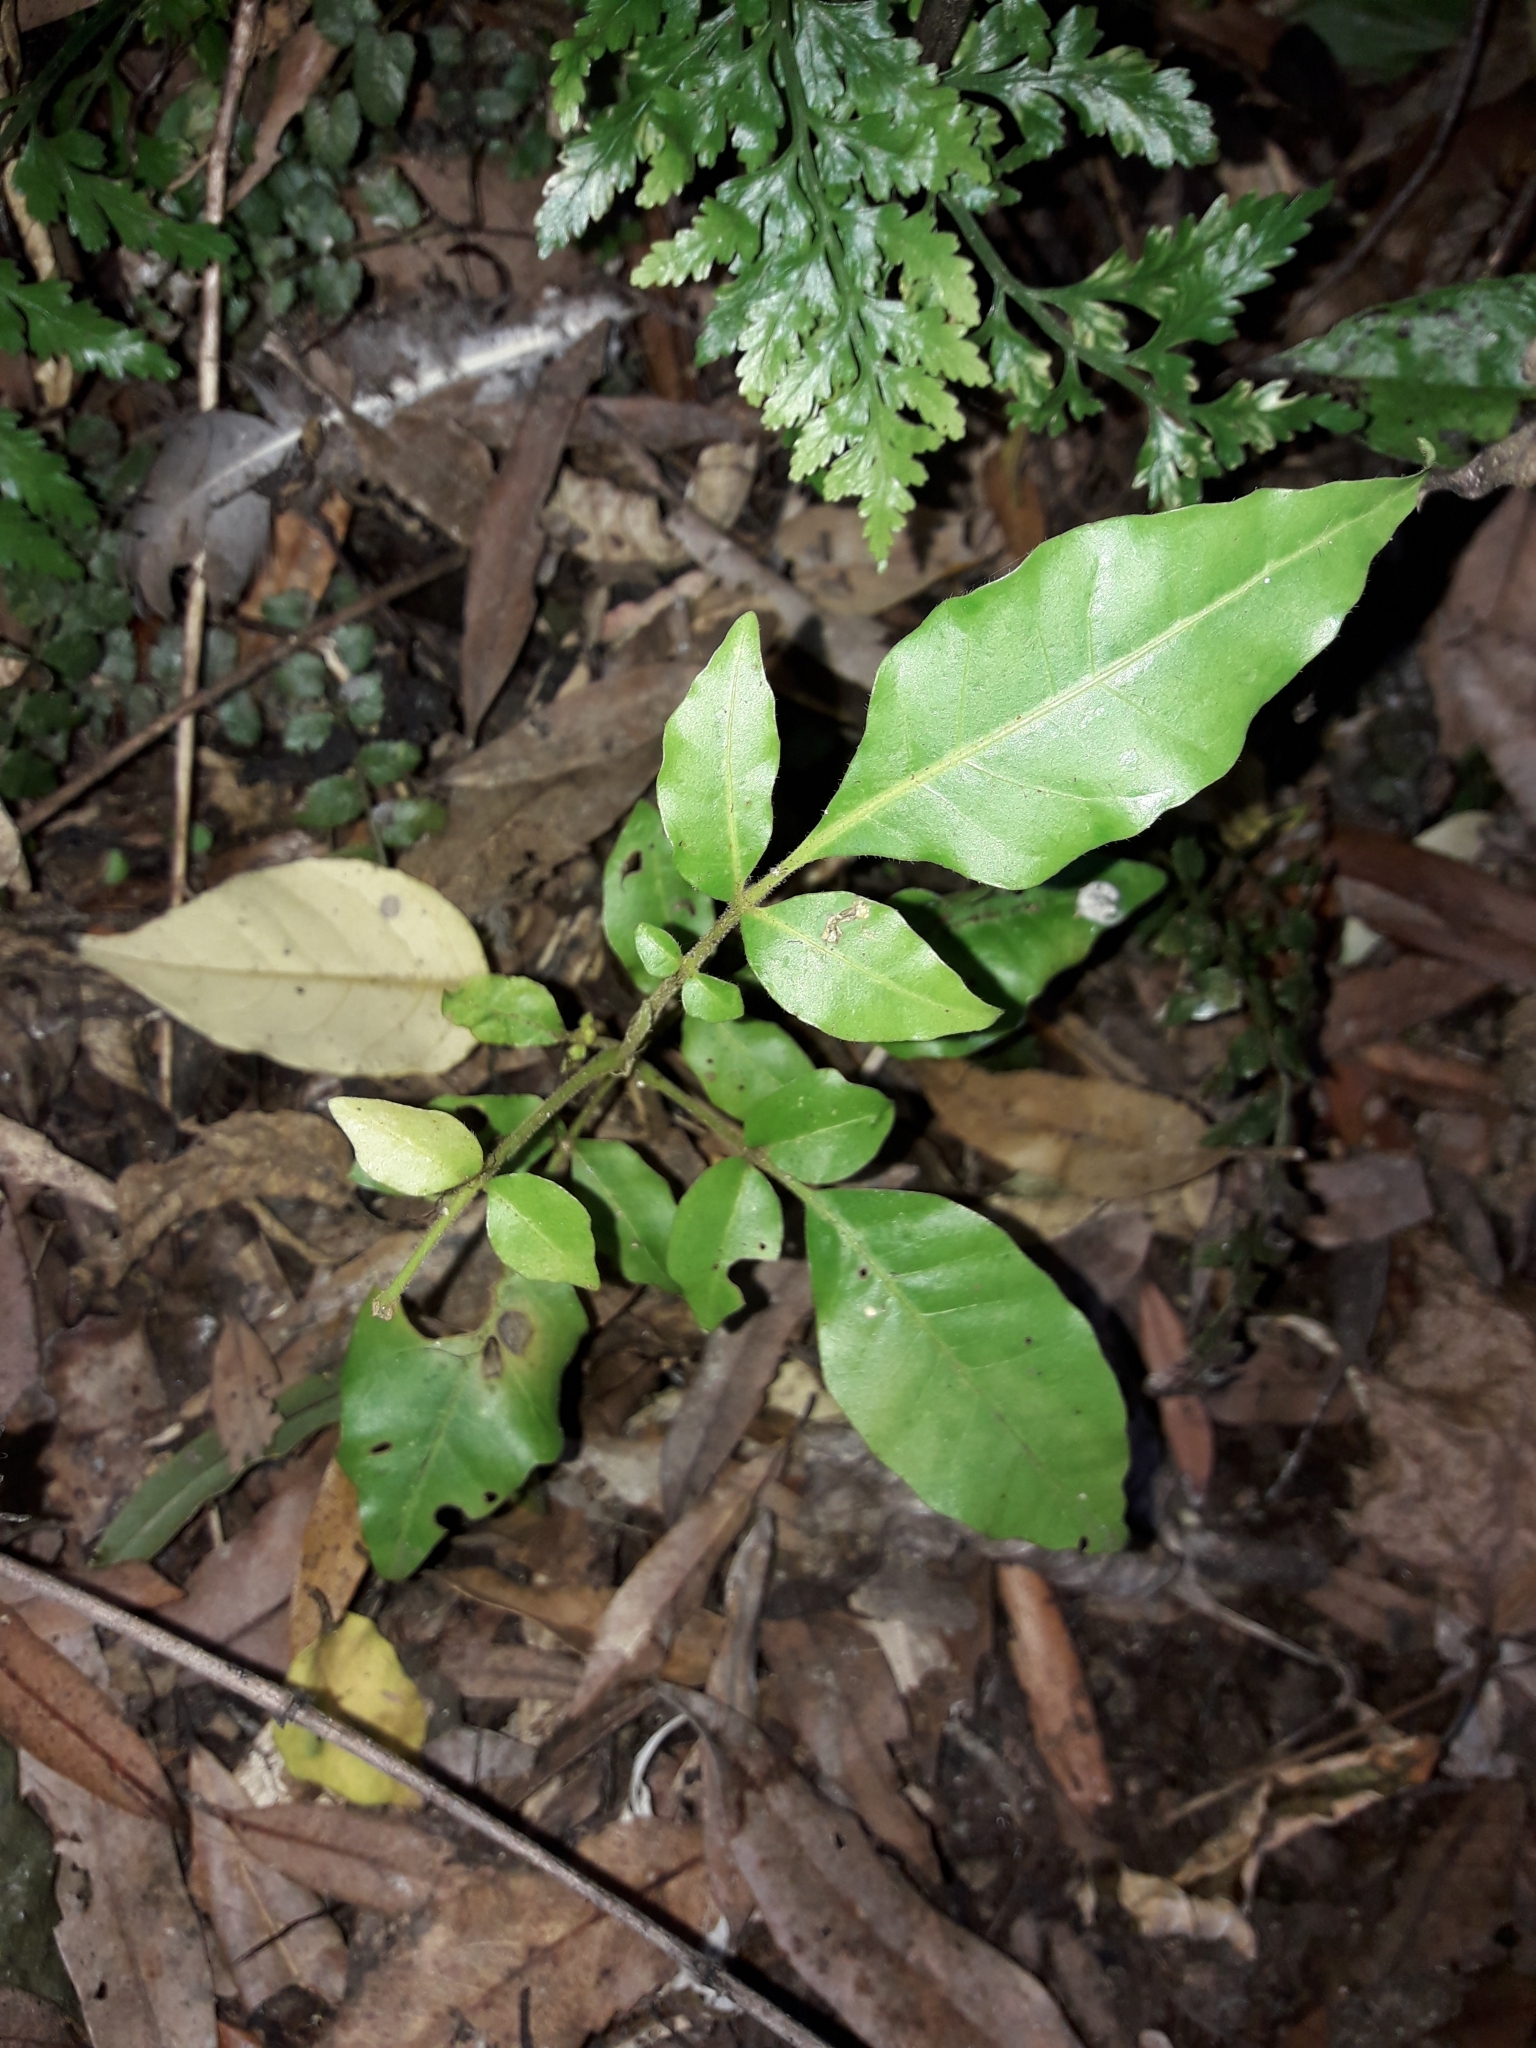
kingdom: Plantae
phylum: Tracheophyta
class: Magnoliopsida
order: Sapindales
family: Meliaceae
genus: Didymocheton
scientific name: Didymocheton spectabilis
